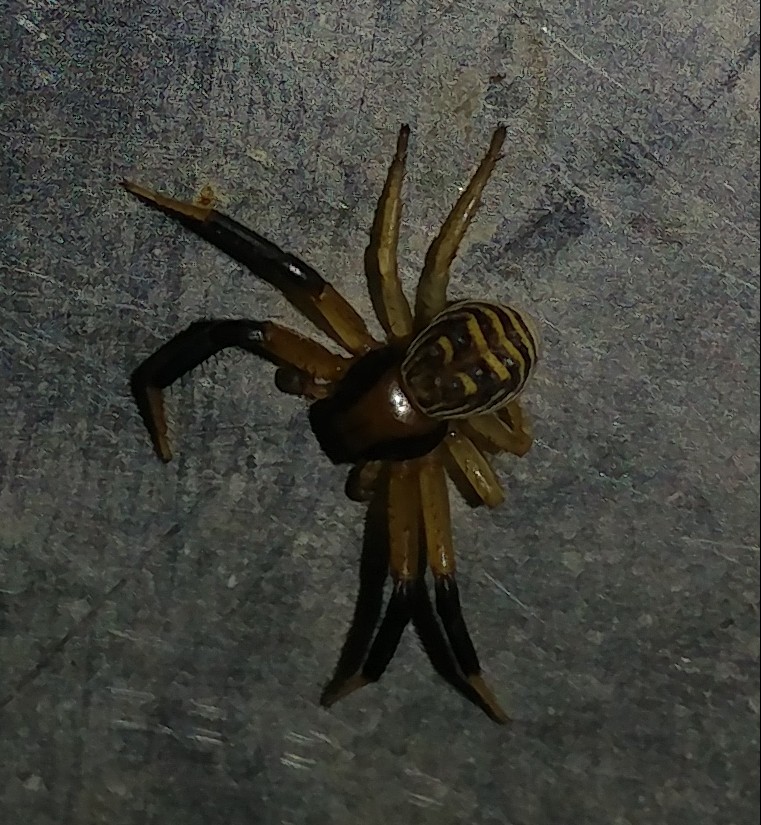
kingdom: Animalia
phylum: Arthropoda
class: Arachnida
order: Araneae
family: Thomisidae
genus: Xysticus
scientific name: Xysticus texanus
